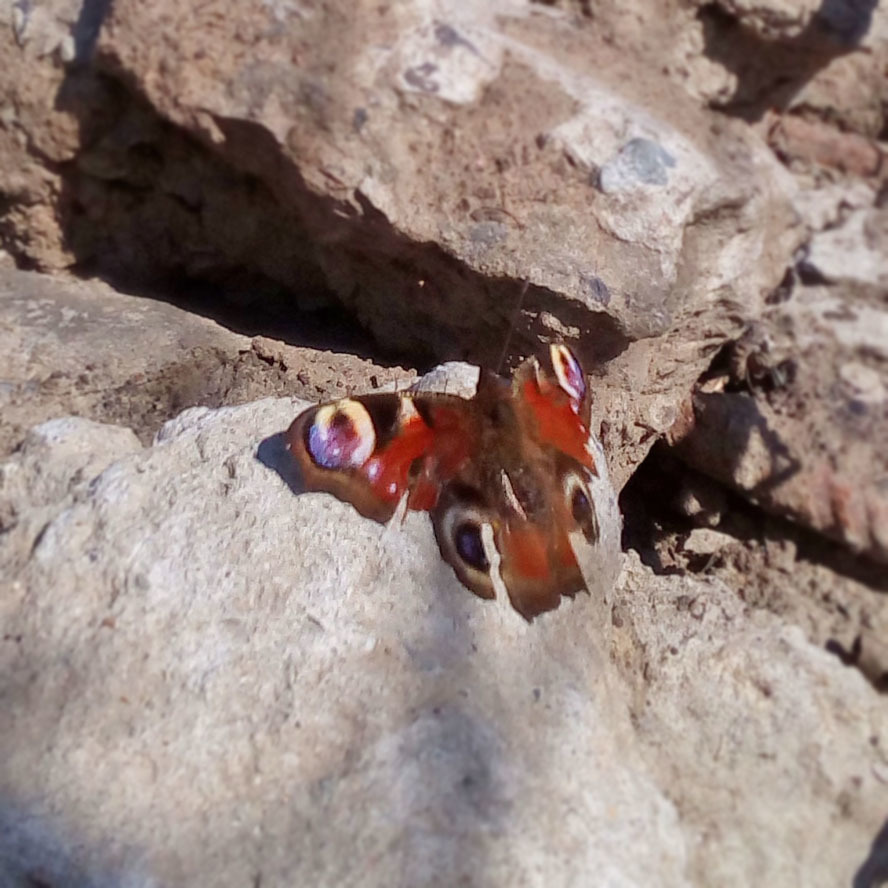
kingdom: Animalia
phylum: Arthropoda
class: Insecta
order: Lepidoptera
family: Nymphalidae
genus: Aglais
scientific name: Aglais io
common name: Peacock
